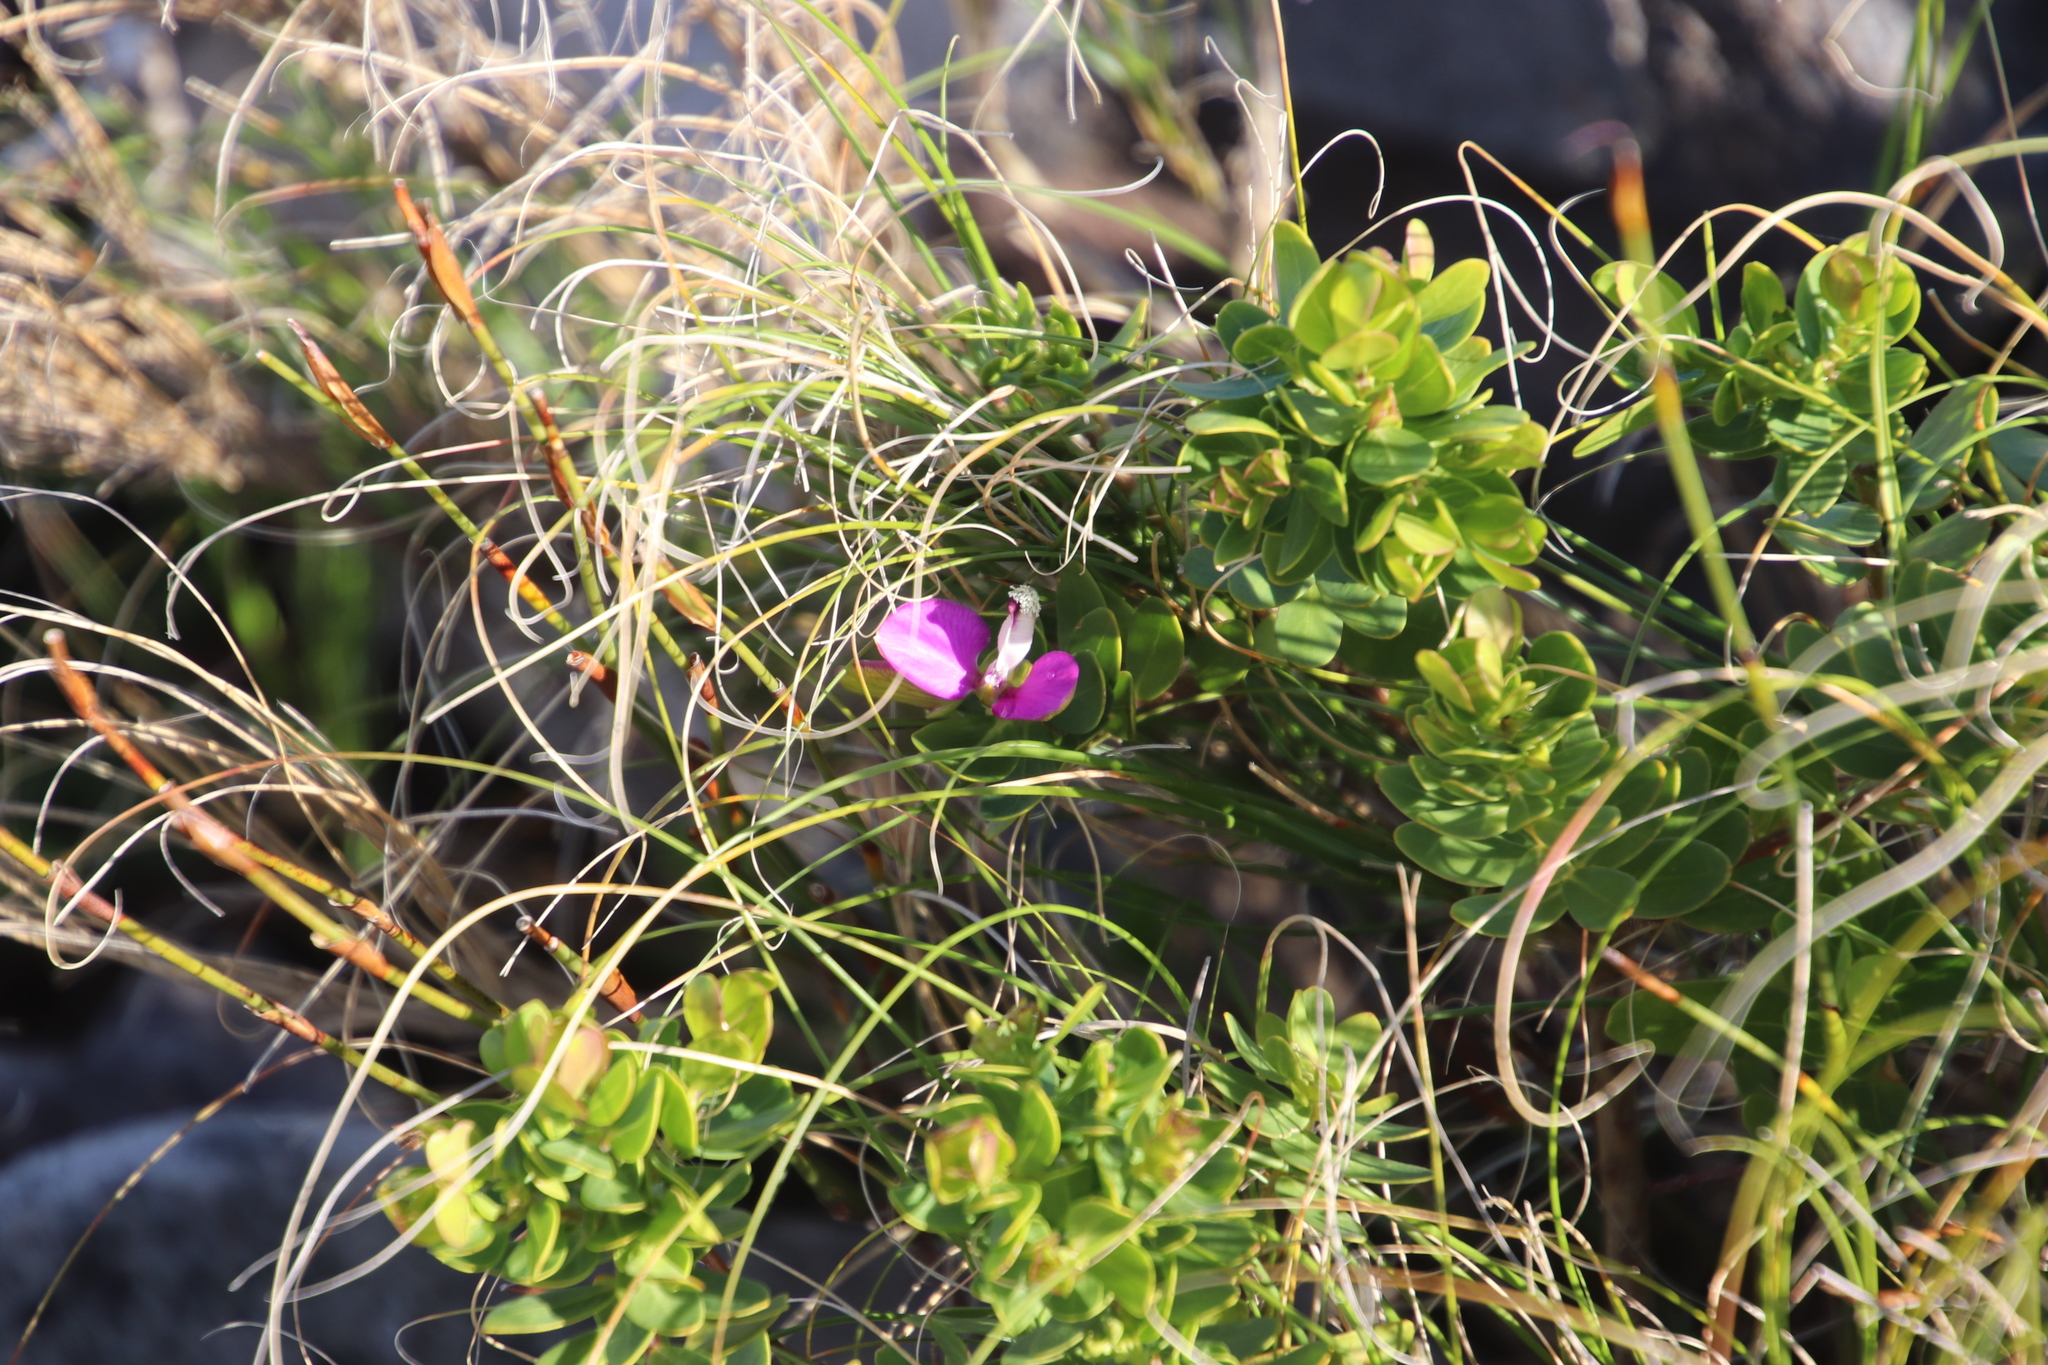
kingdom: Plantae
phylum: Tracheophyta
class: Magnoliopsida
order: Fabales
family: Polygalaceae
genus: Polygala
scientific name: Polygala myrtifolia
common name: Myrtle-leaf milkwort
